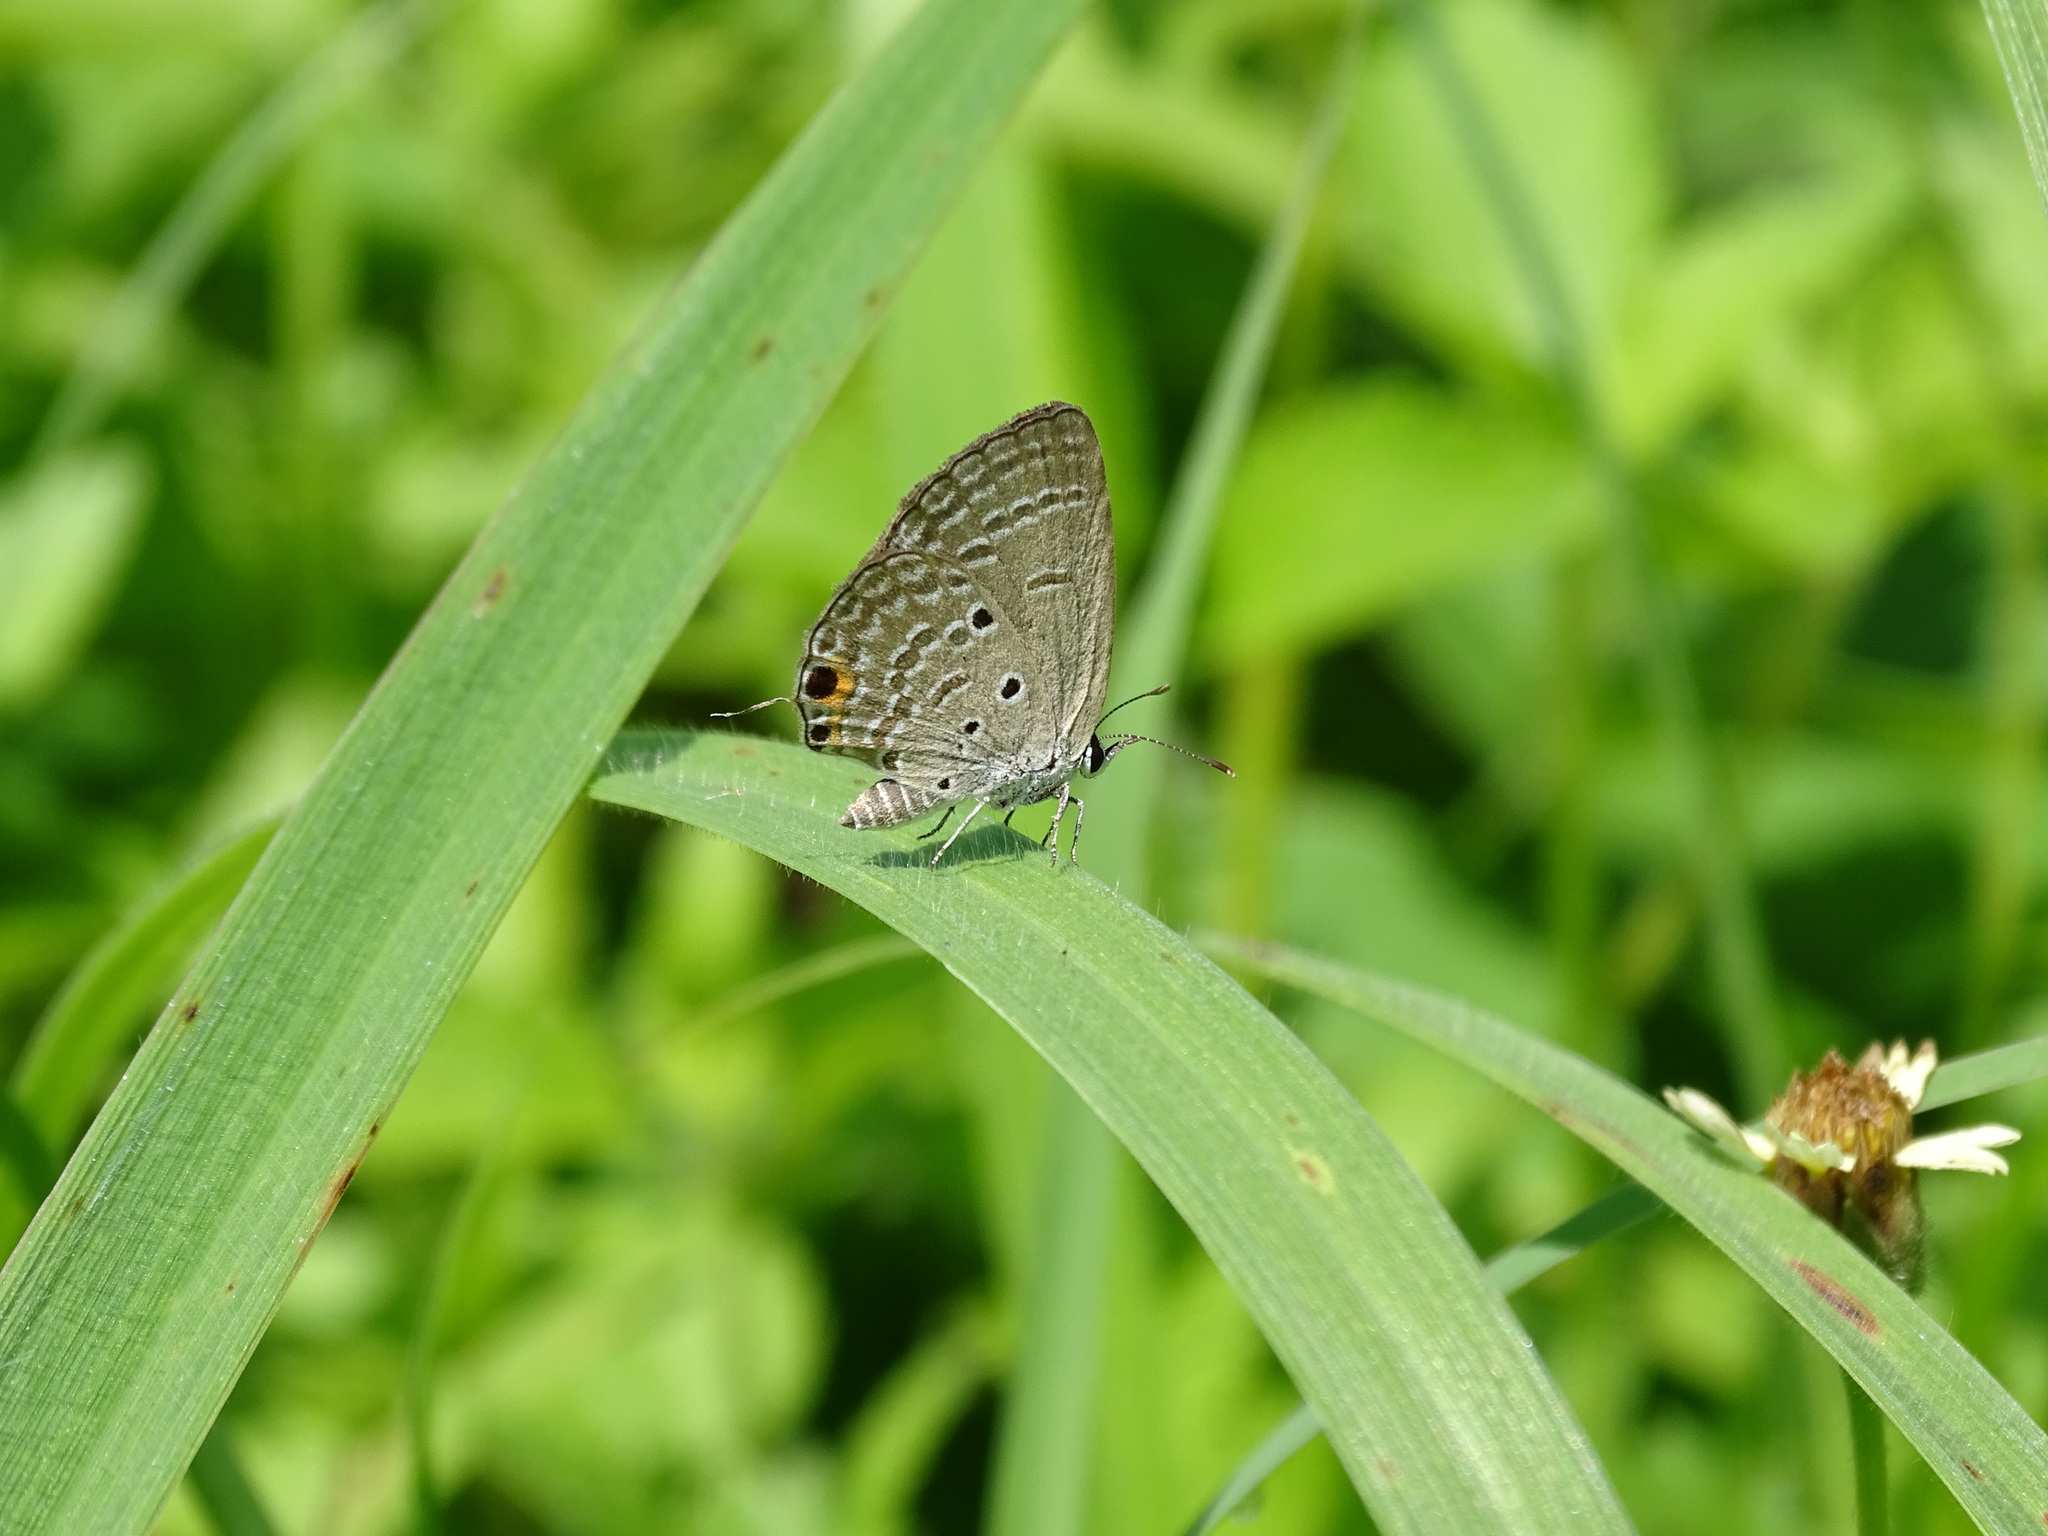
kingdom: Animalia
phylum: Arthropoda
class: Insecta
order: Lepidoptera
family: Lycaenidae
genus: Luthrodes
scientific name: Luthrodes pandava
